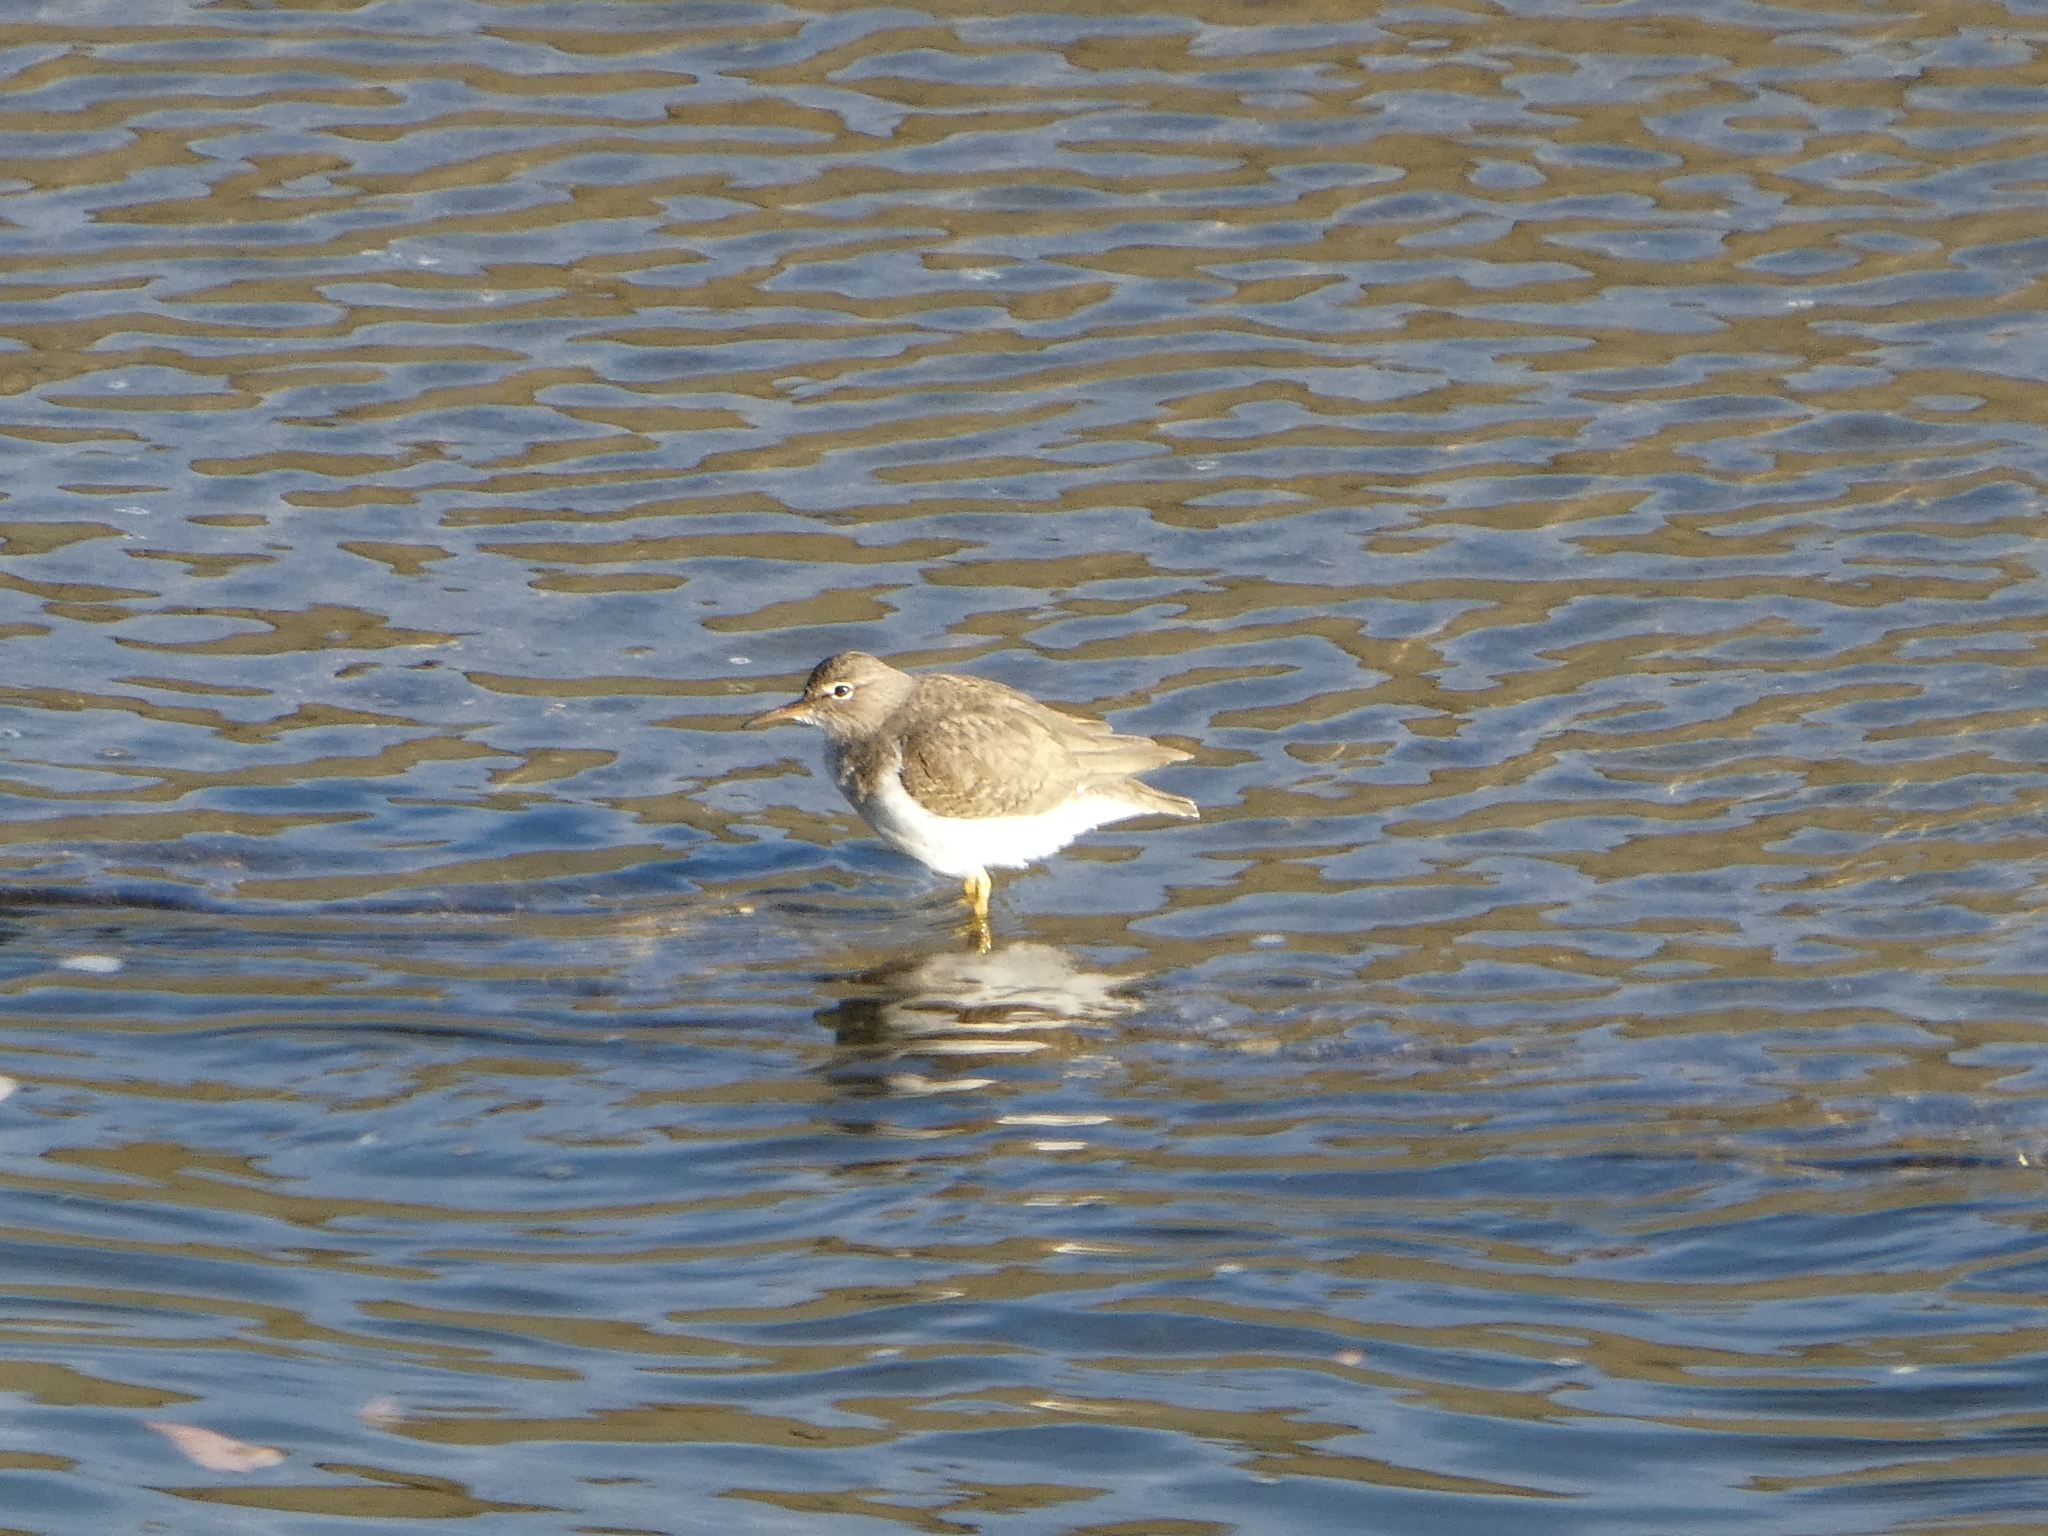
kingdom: Animalia
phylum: Chordata
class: Aves
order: Charadriiformes
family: Scolopacidae
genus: Actitis
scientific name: Actitis macularius
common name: Spotted sandpiper
